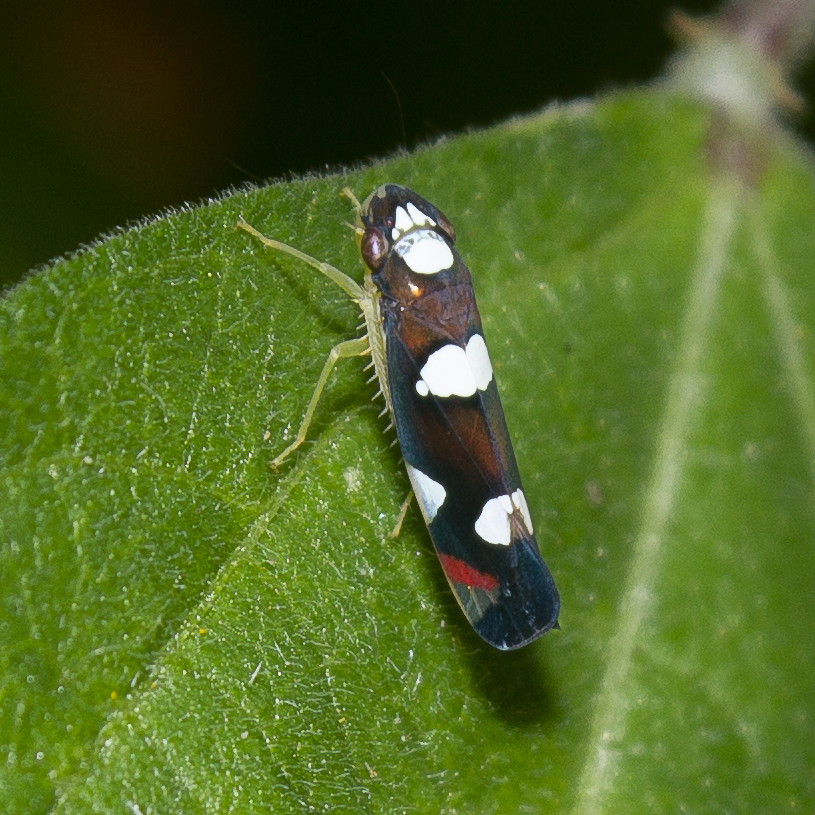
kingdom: Animalia
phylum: Arthropoda
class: Insecta
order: Hemiptera
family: Cicadellidae
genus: Erythrogonia
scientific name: Erythrogonia anduzei
